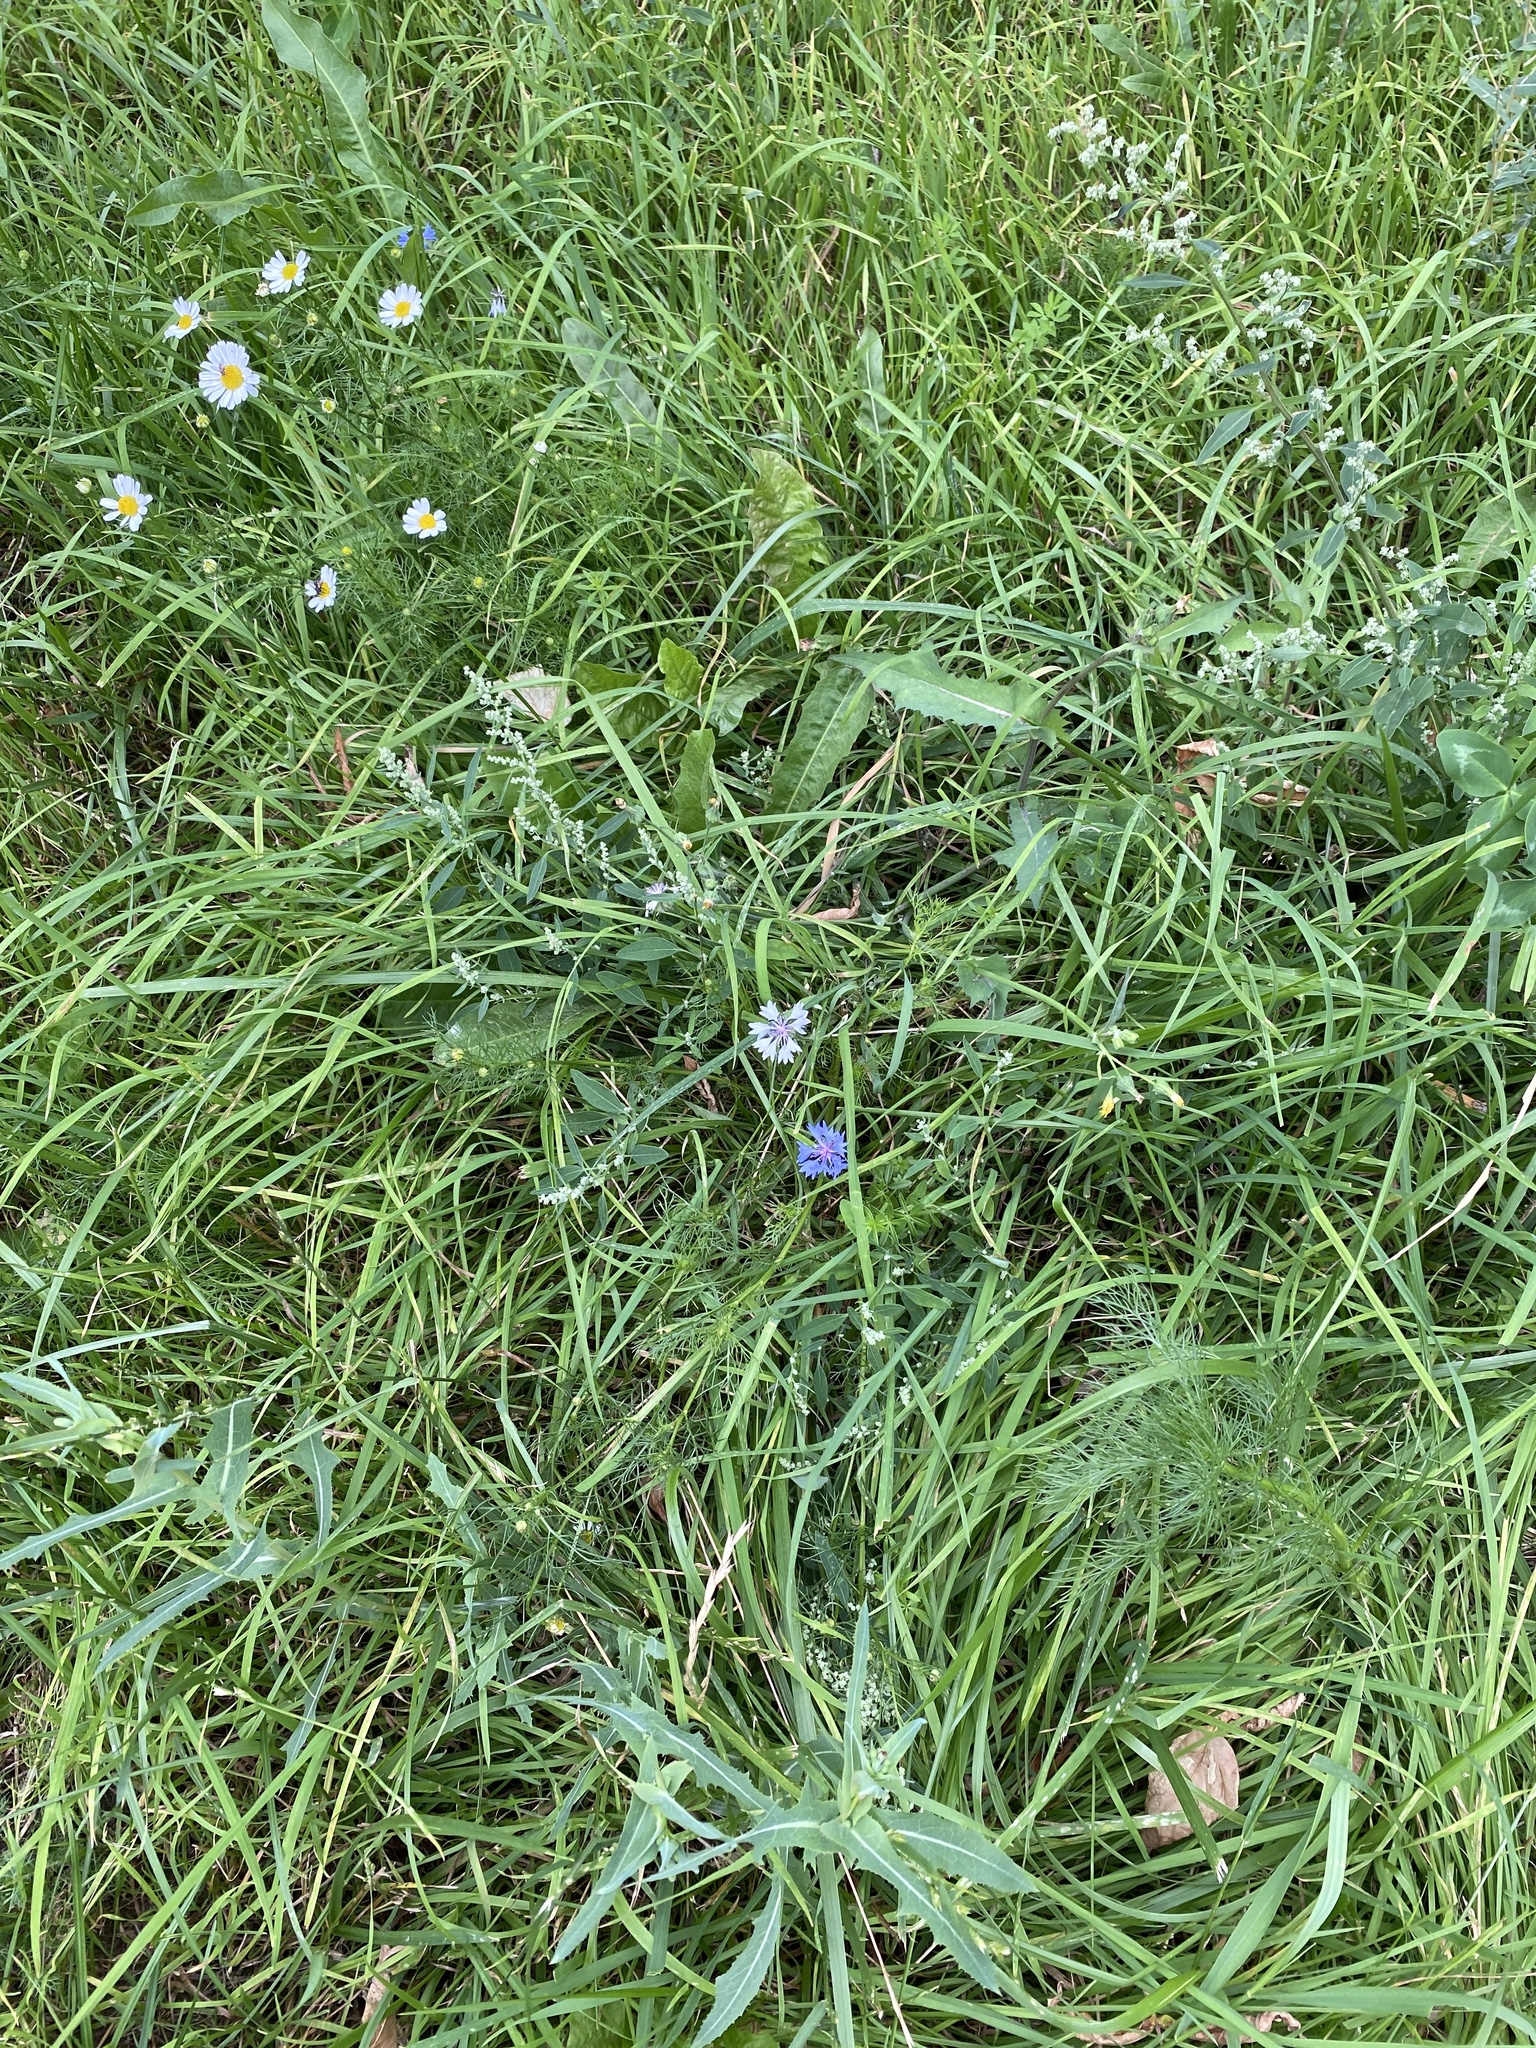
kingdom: Plantae
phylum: Tracheophyta
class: Magnoliopsida
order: Asterales
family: Asteraceae
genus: Centaurea
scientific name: Centaurea cyanus
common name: Cornflower
